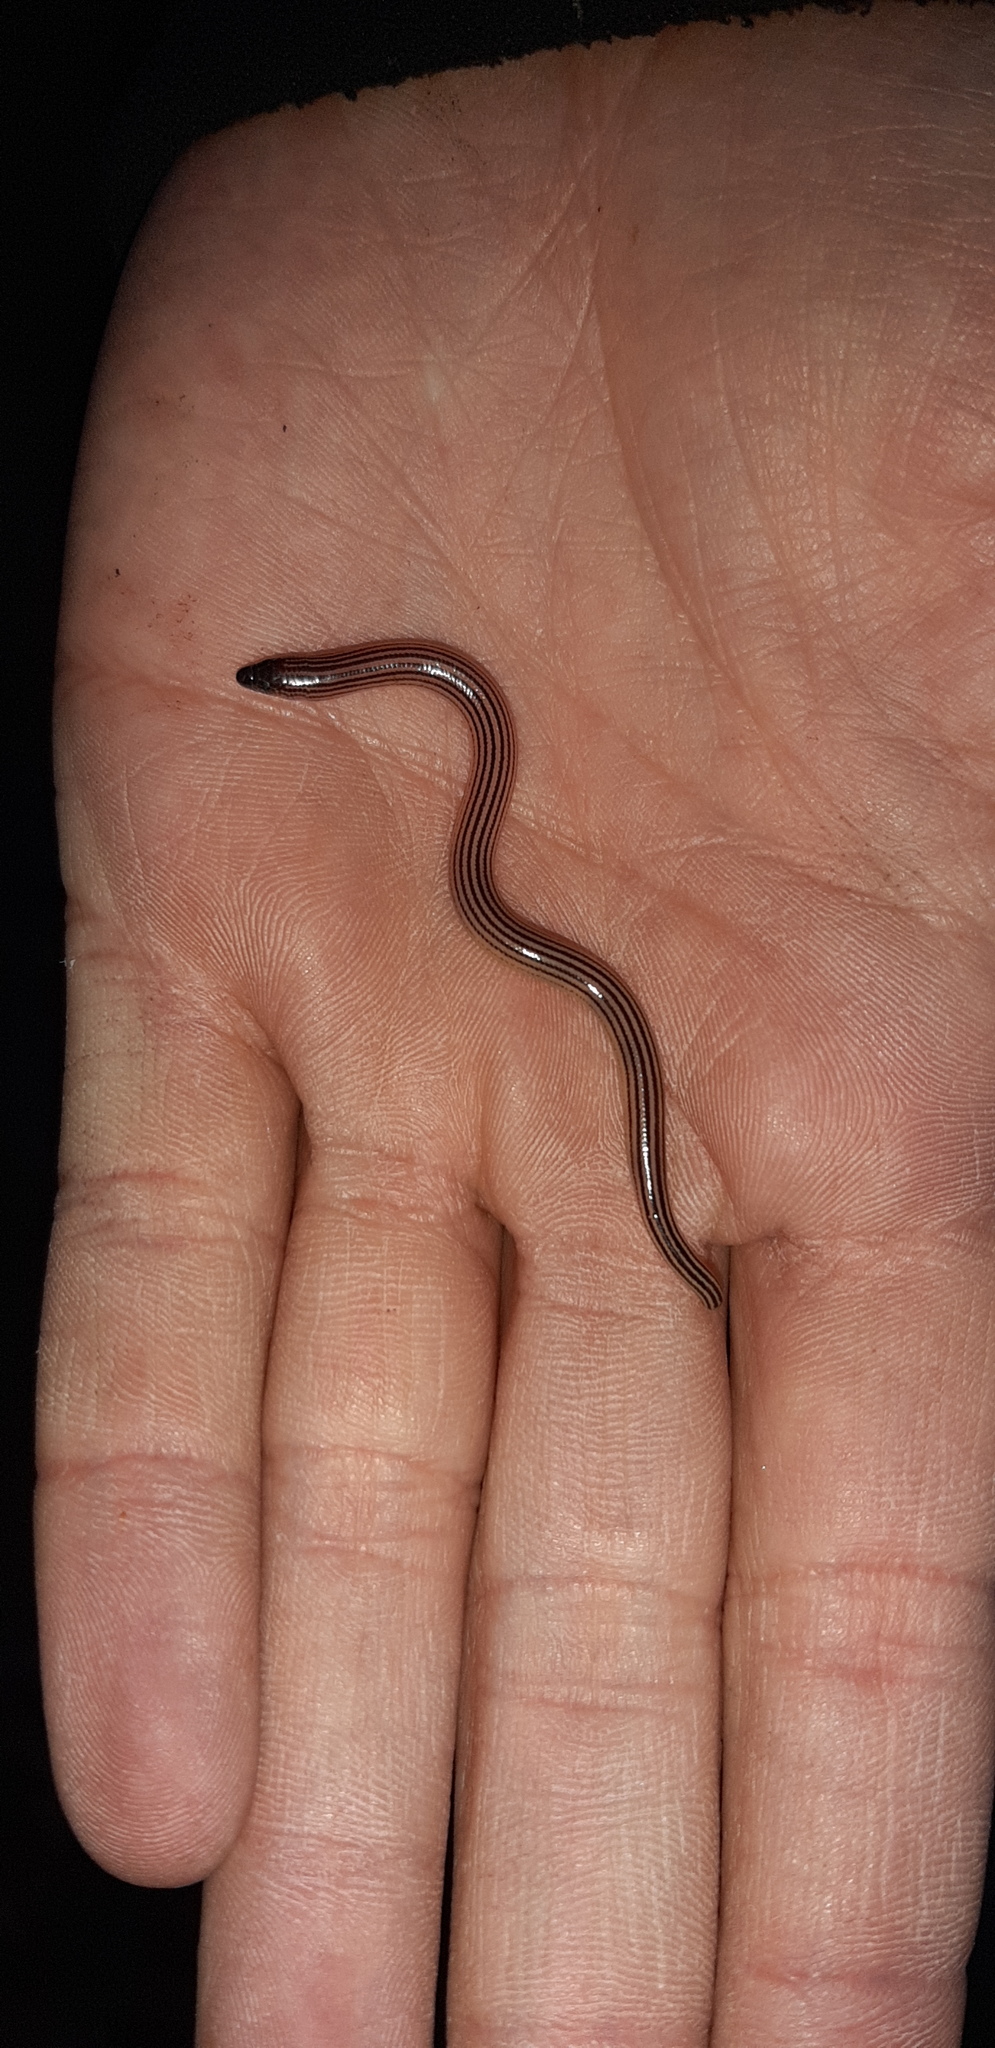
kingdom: Animalia
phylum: Chordata
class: Squamata
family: Scincidae
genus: Acontias
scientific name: Acontias lineicauda
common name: Algoa bay legless skink
